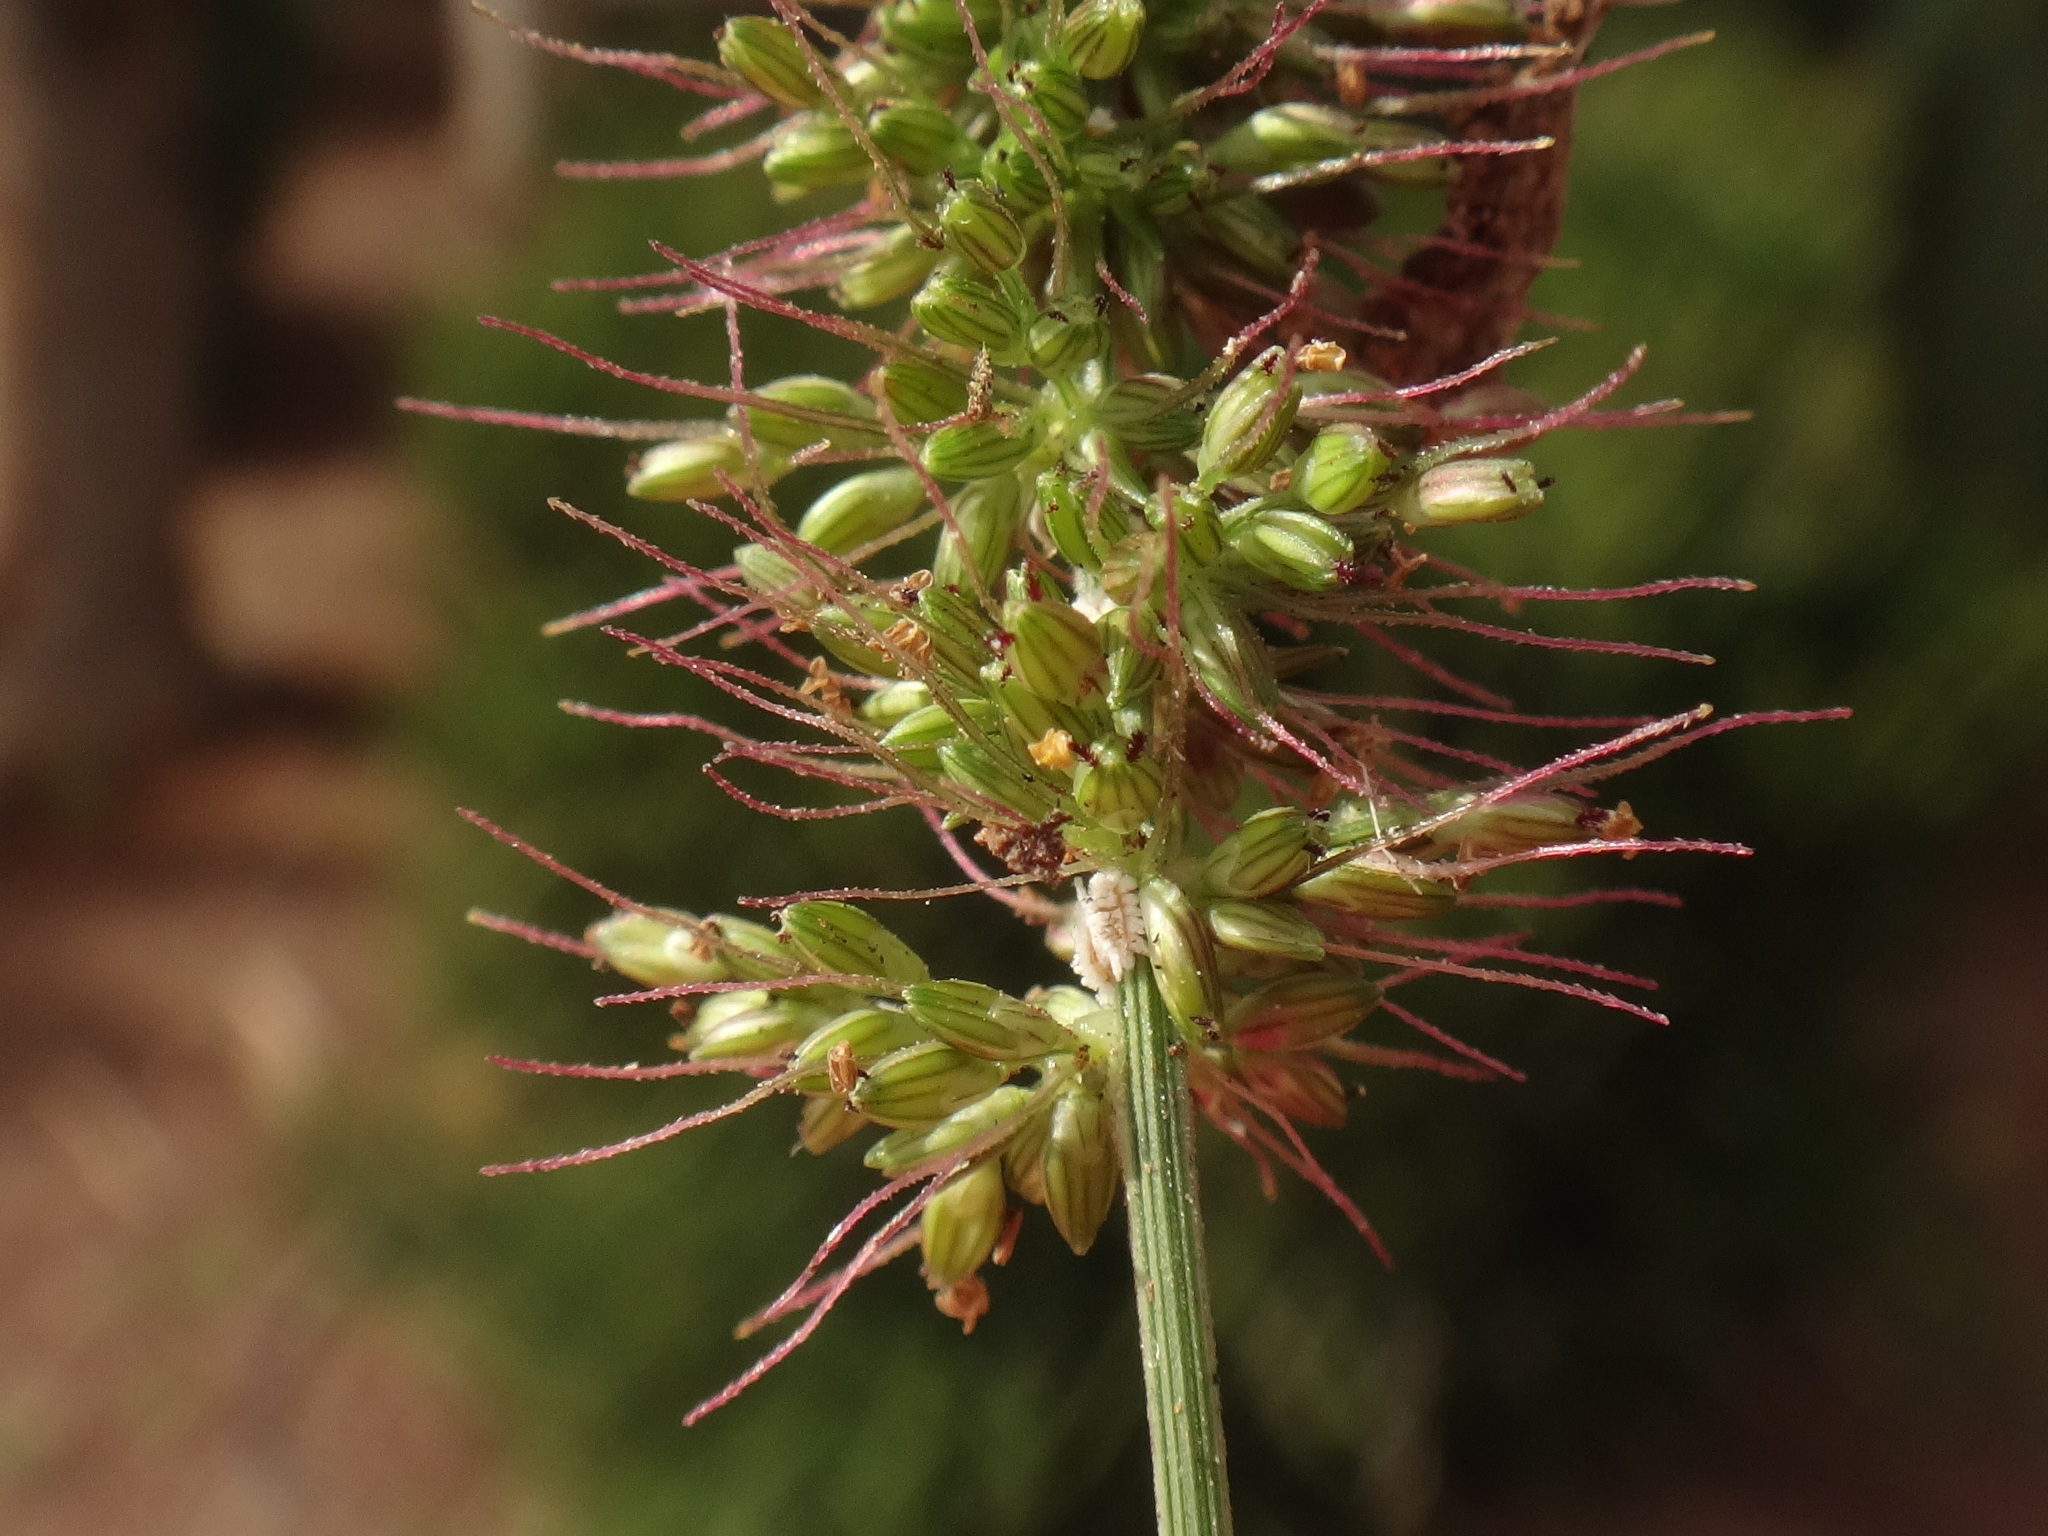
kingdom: Plantae
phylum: Tracheophyta
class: Liliopsida
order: Poales
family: Poaceae
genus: Setaria
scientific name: Setaria adhaerens
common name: Adherent bristle-grass
